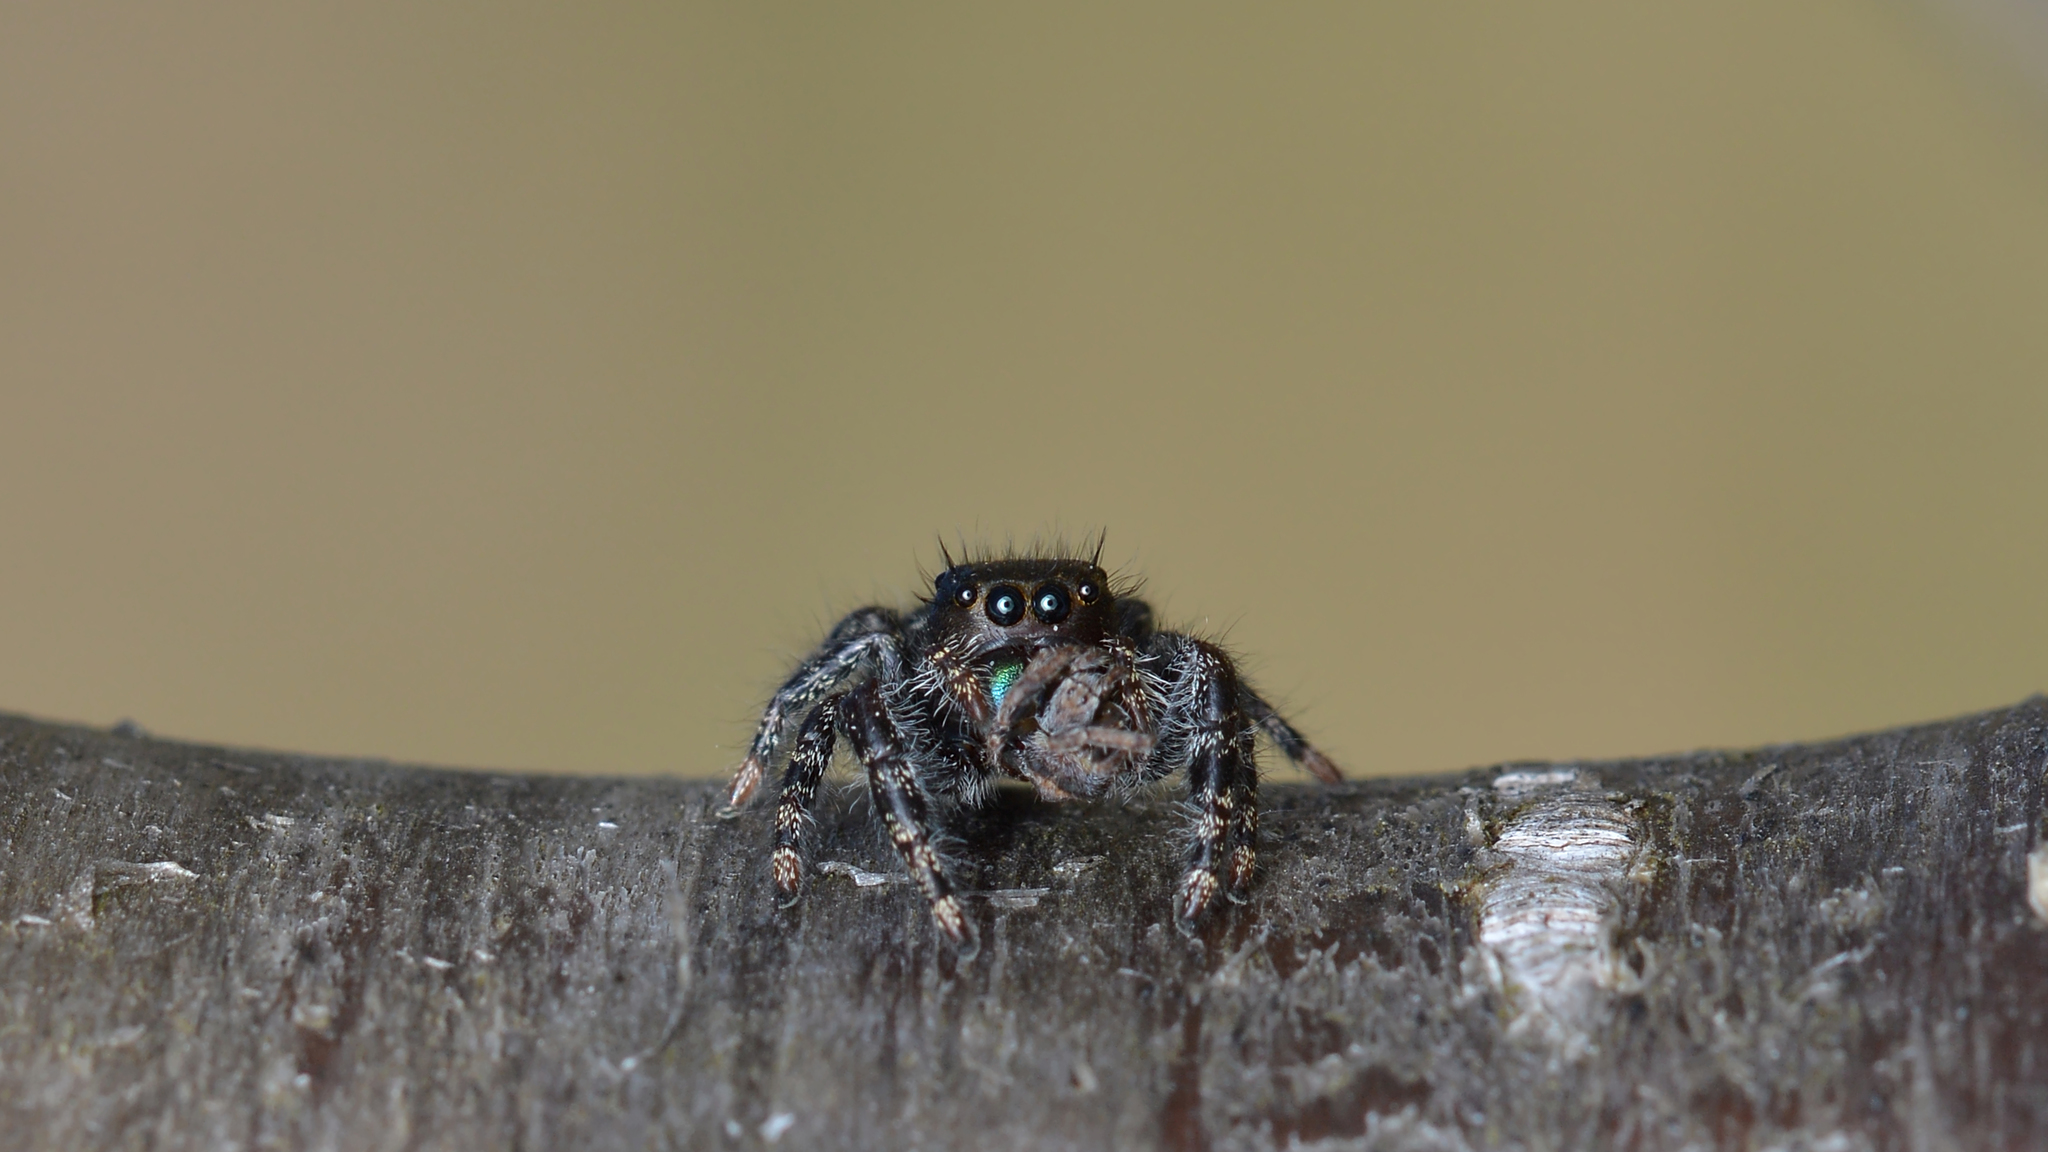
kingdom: Animalia
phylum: Arthropoda
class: Arachnida
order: Araneae
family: Salticidae
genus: Phidippus
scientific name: Phidippus audax
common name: Bold jumper
